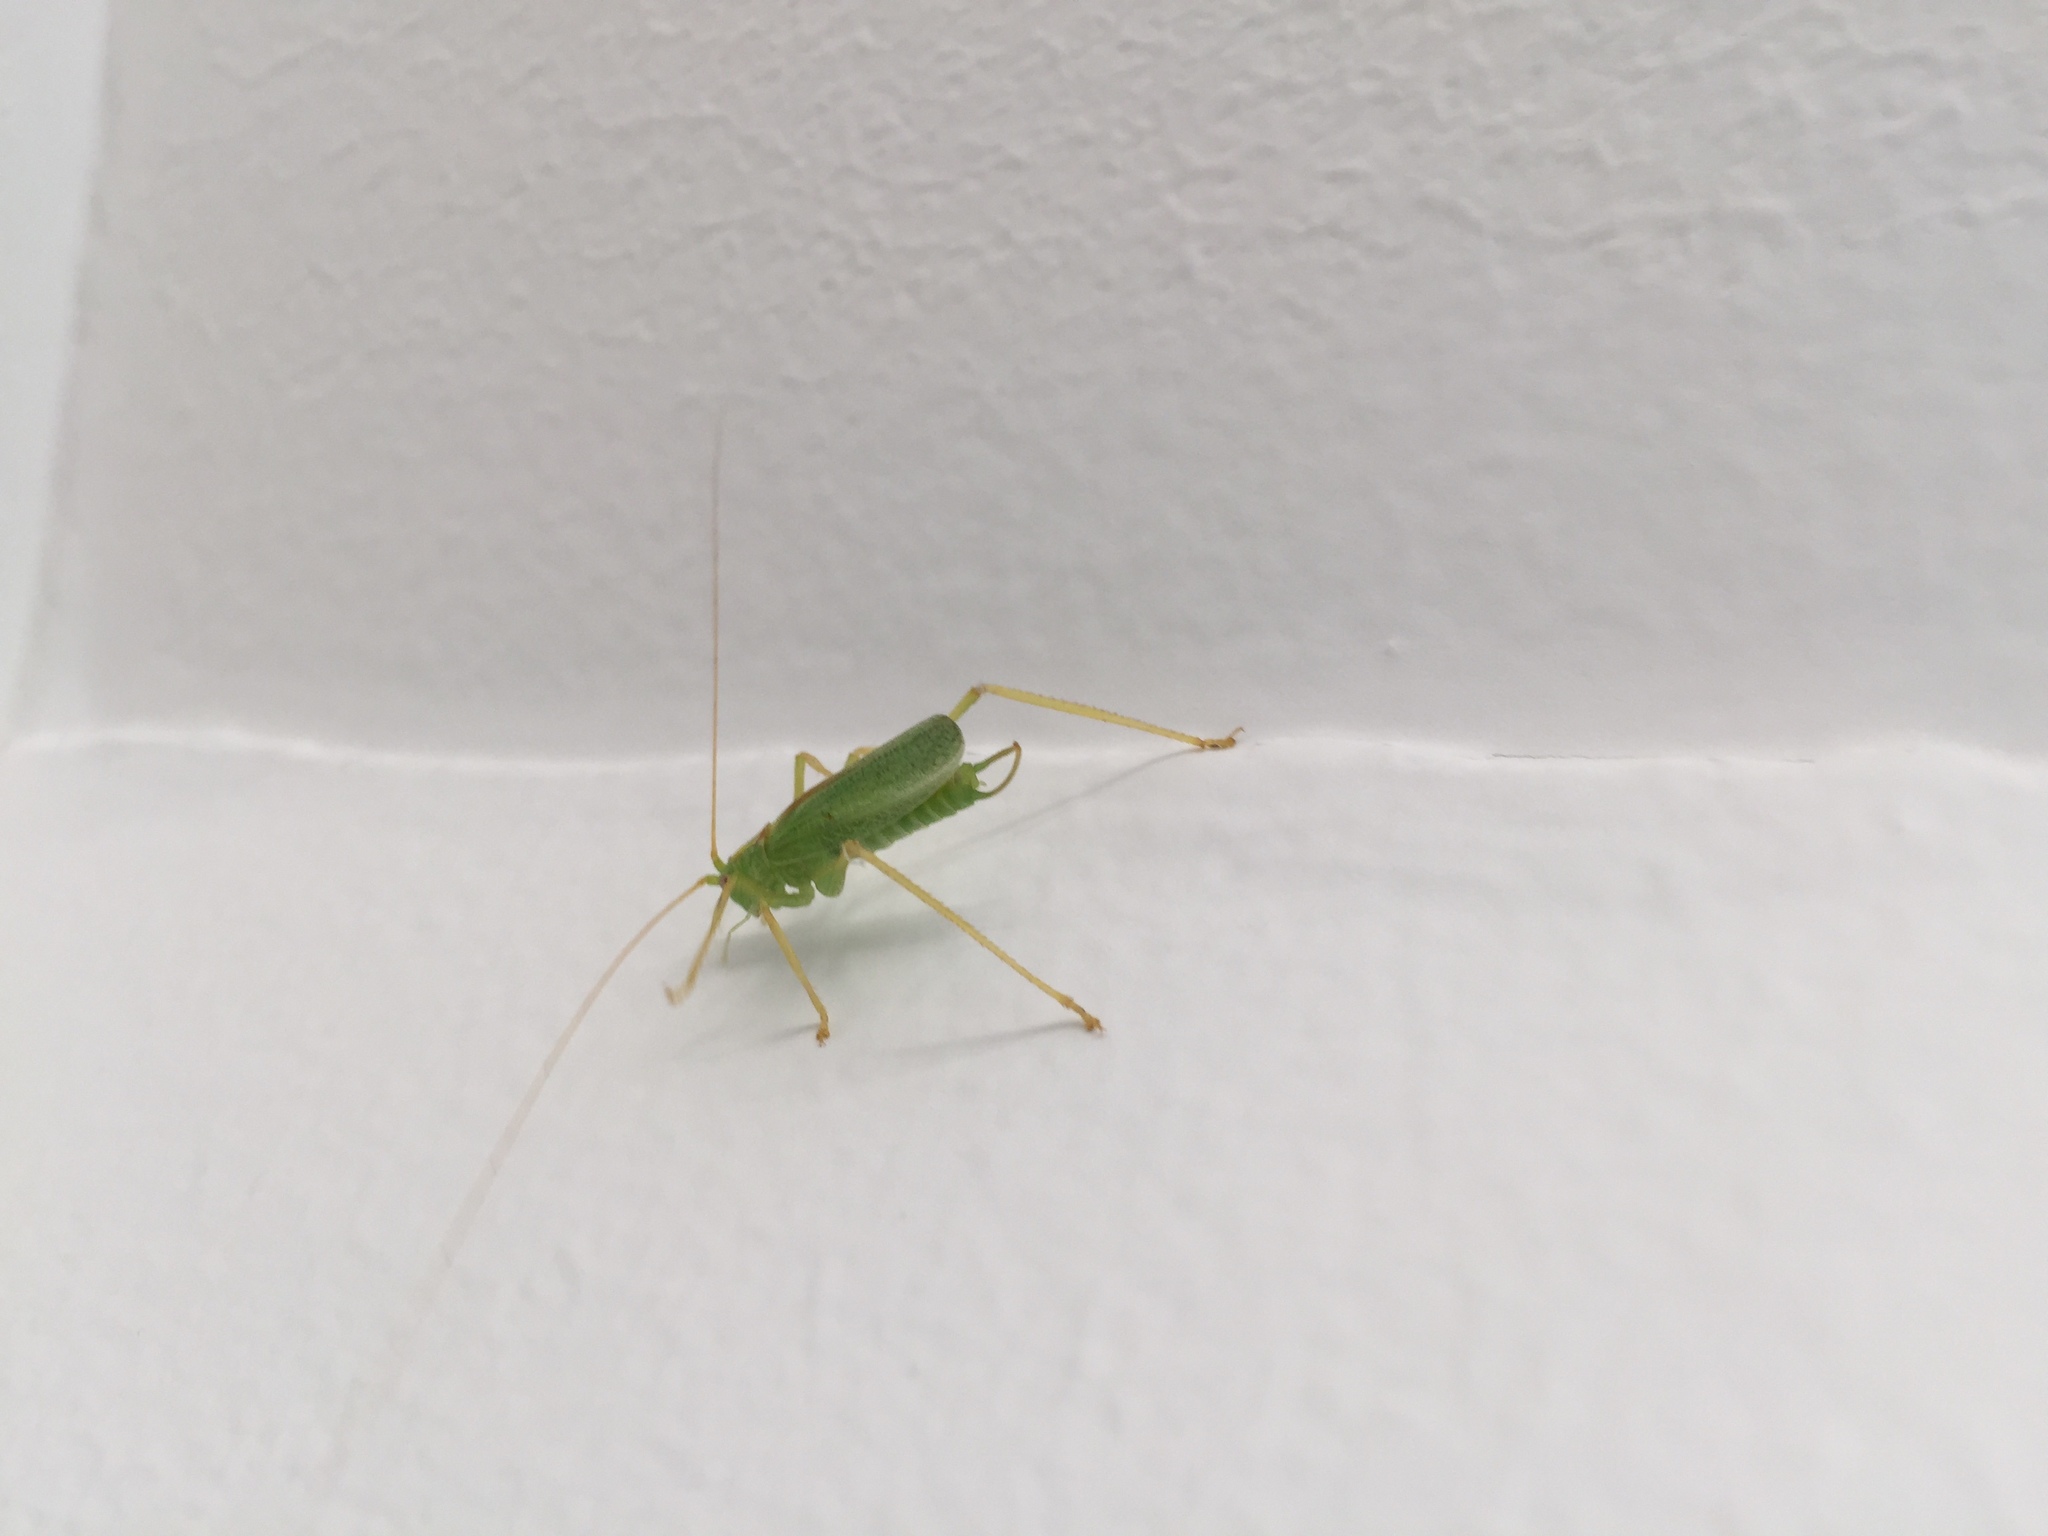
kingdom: Animalia
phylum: Arthropoda
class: Insecta
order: Orthoptera
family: Tettigoniidae
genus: Meconema
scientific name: Meconema thalassinum
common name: Oak bush-cricket
